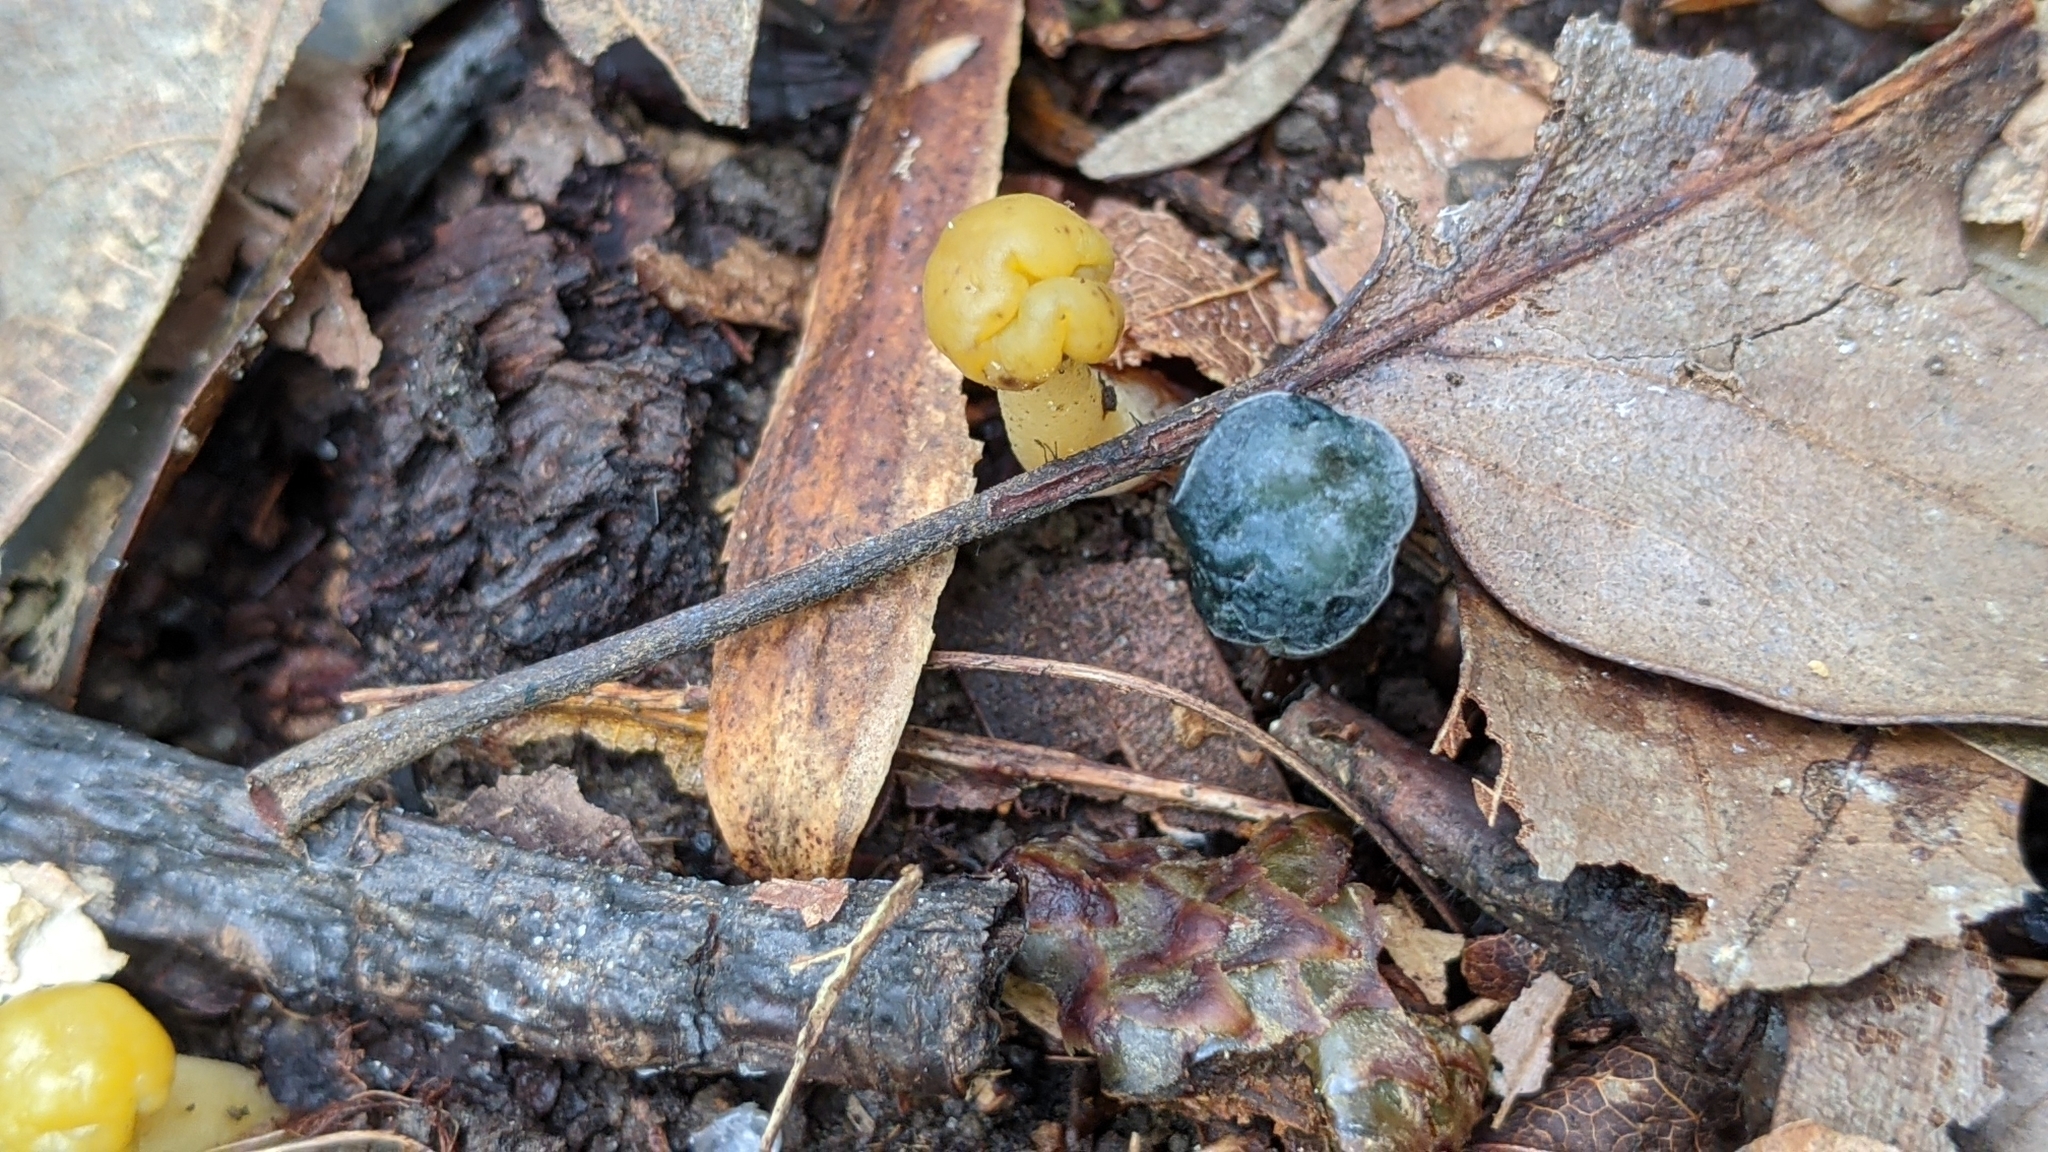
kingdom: Fungi
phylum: Ascomycota
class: Leotiomycetes
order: Leotiales
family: Leotiaceae
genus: Leotia
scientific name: Leotia lubrica
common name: Jellybaby
